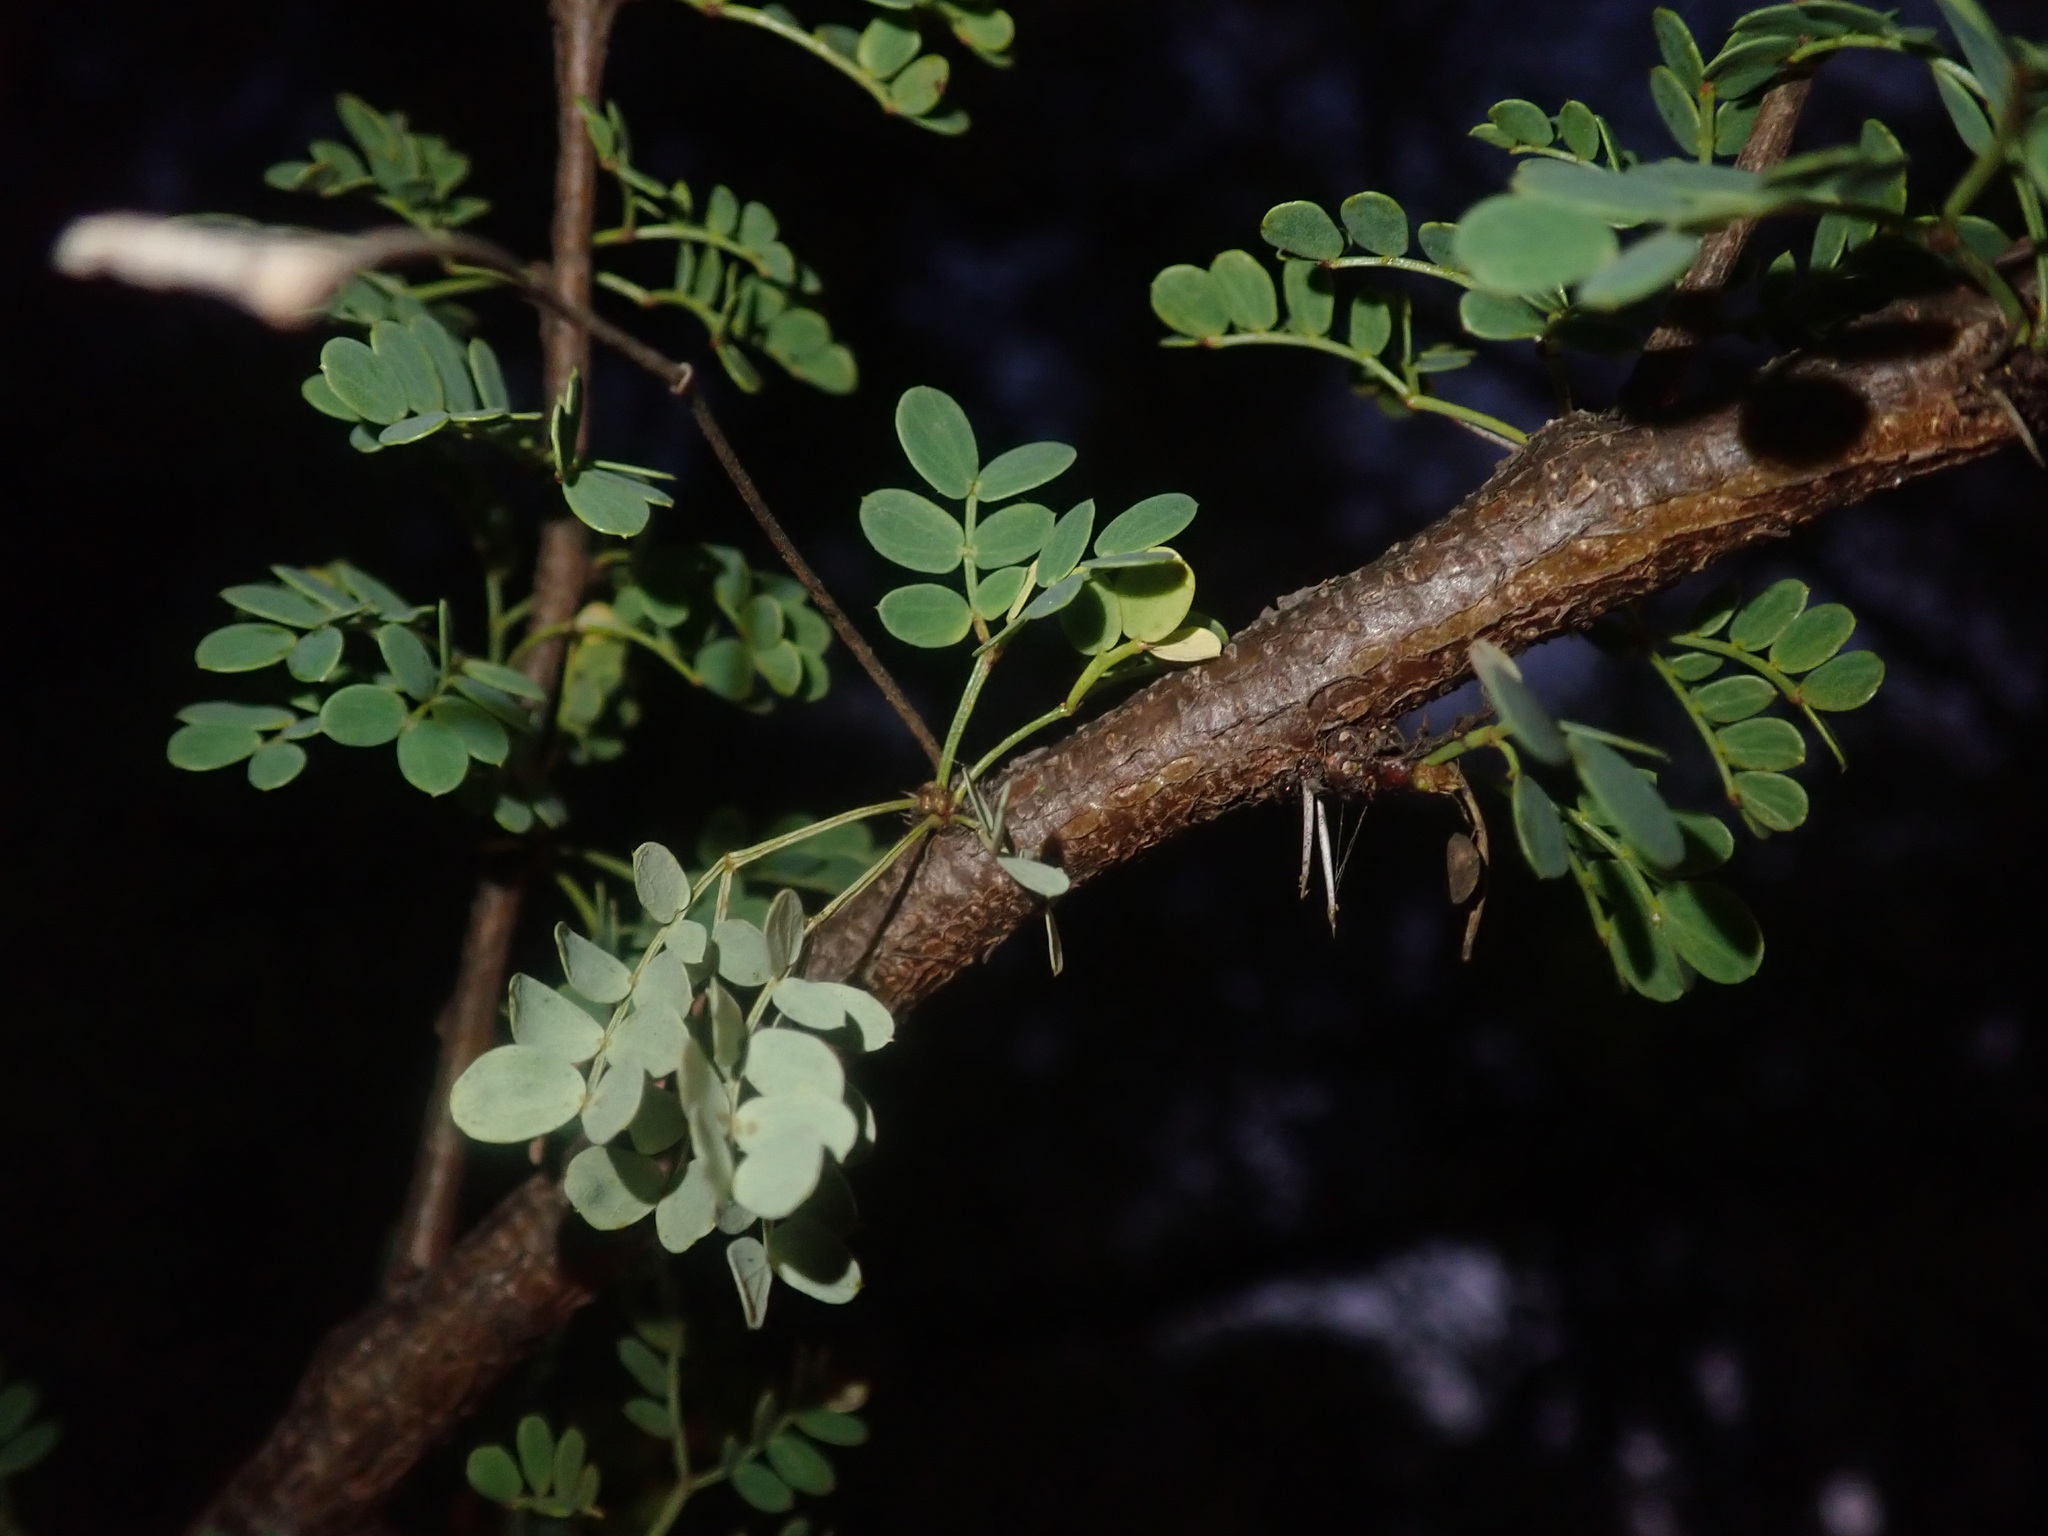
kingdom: Plantae
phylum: Tracheophyta
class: Magnoliopsida
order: Fabales
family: Fabaceae
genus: Vachellia
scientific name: Vachellia exuvialis
